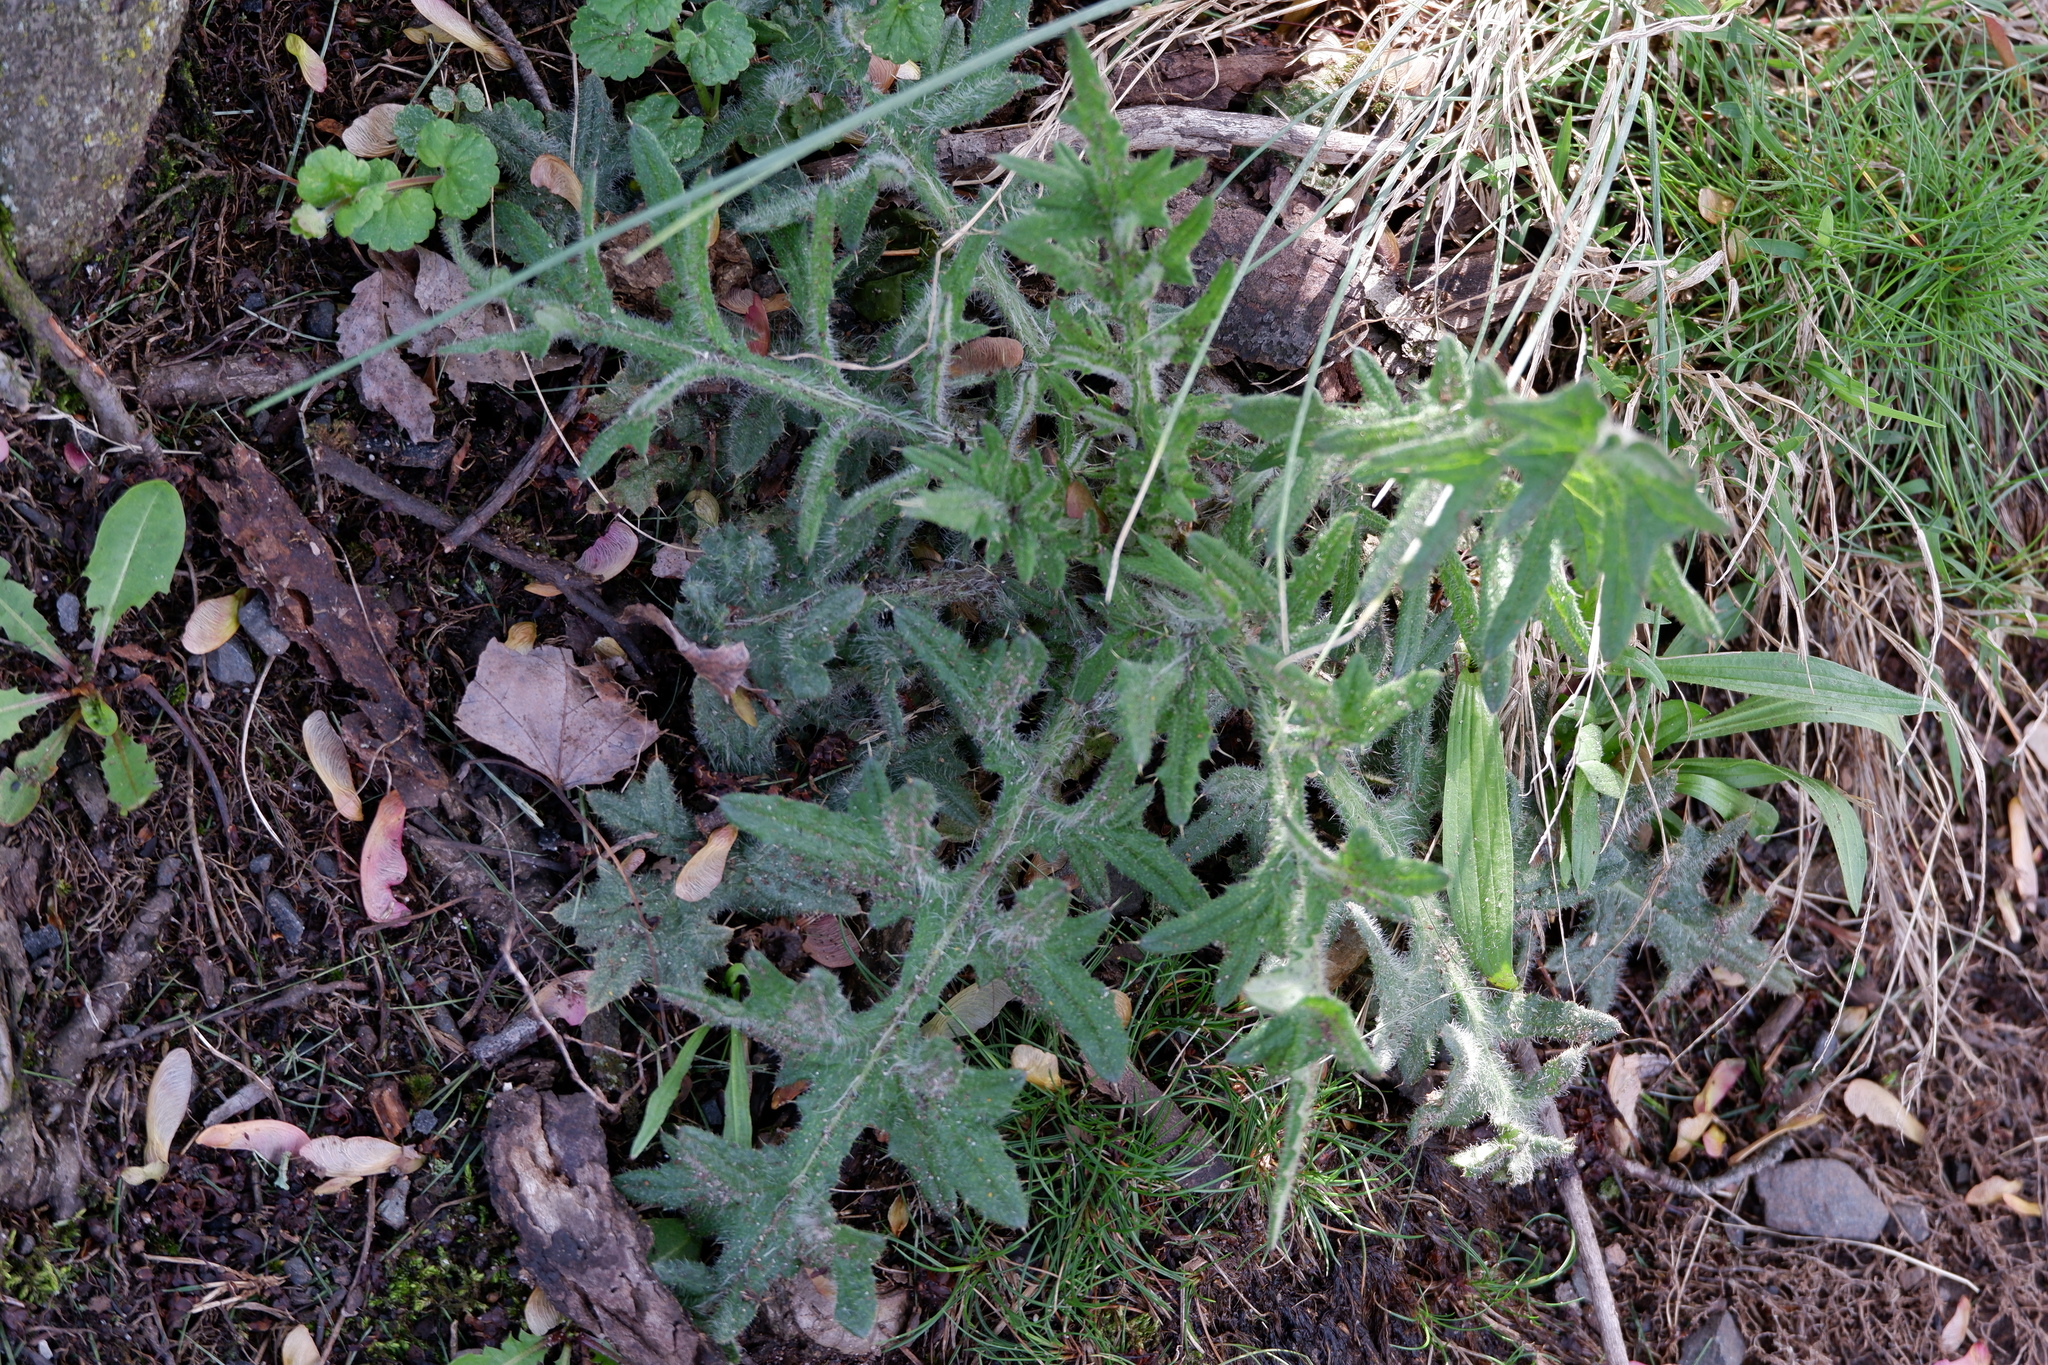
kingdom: Plantae
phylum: Tracheophyta
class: Magnoliopsida
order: Asterales
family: Asteraceae
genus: Cirsium
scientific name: Cirsium vulgare
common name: Bull thistle
